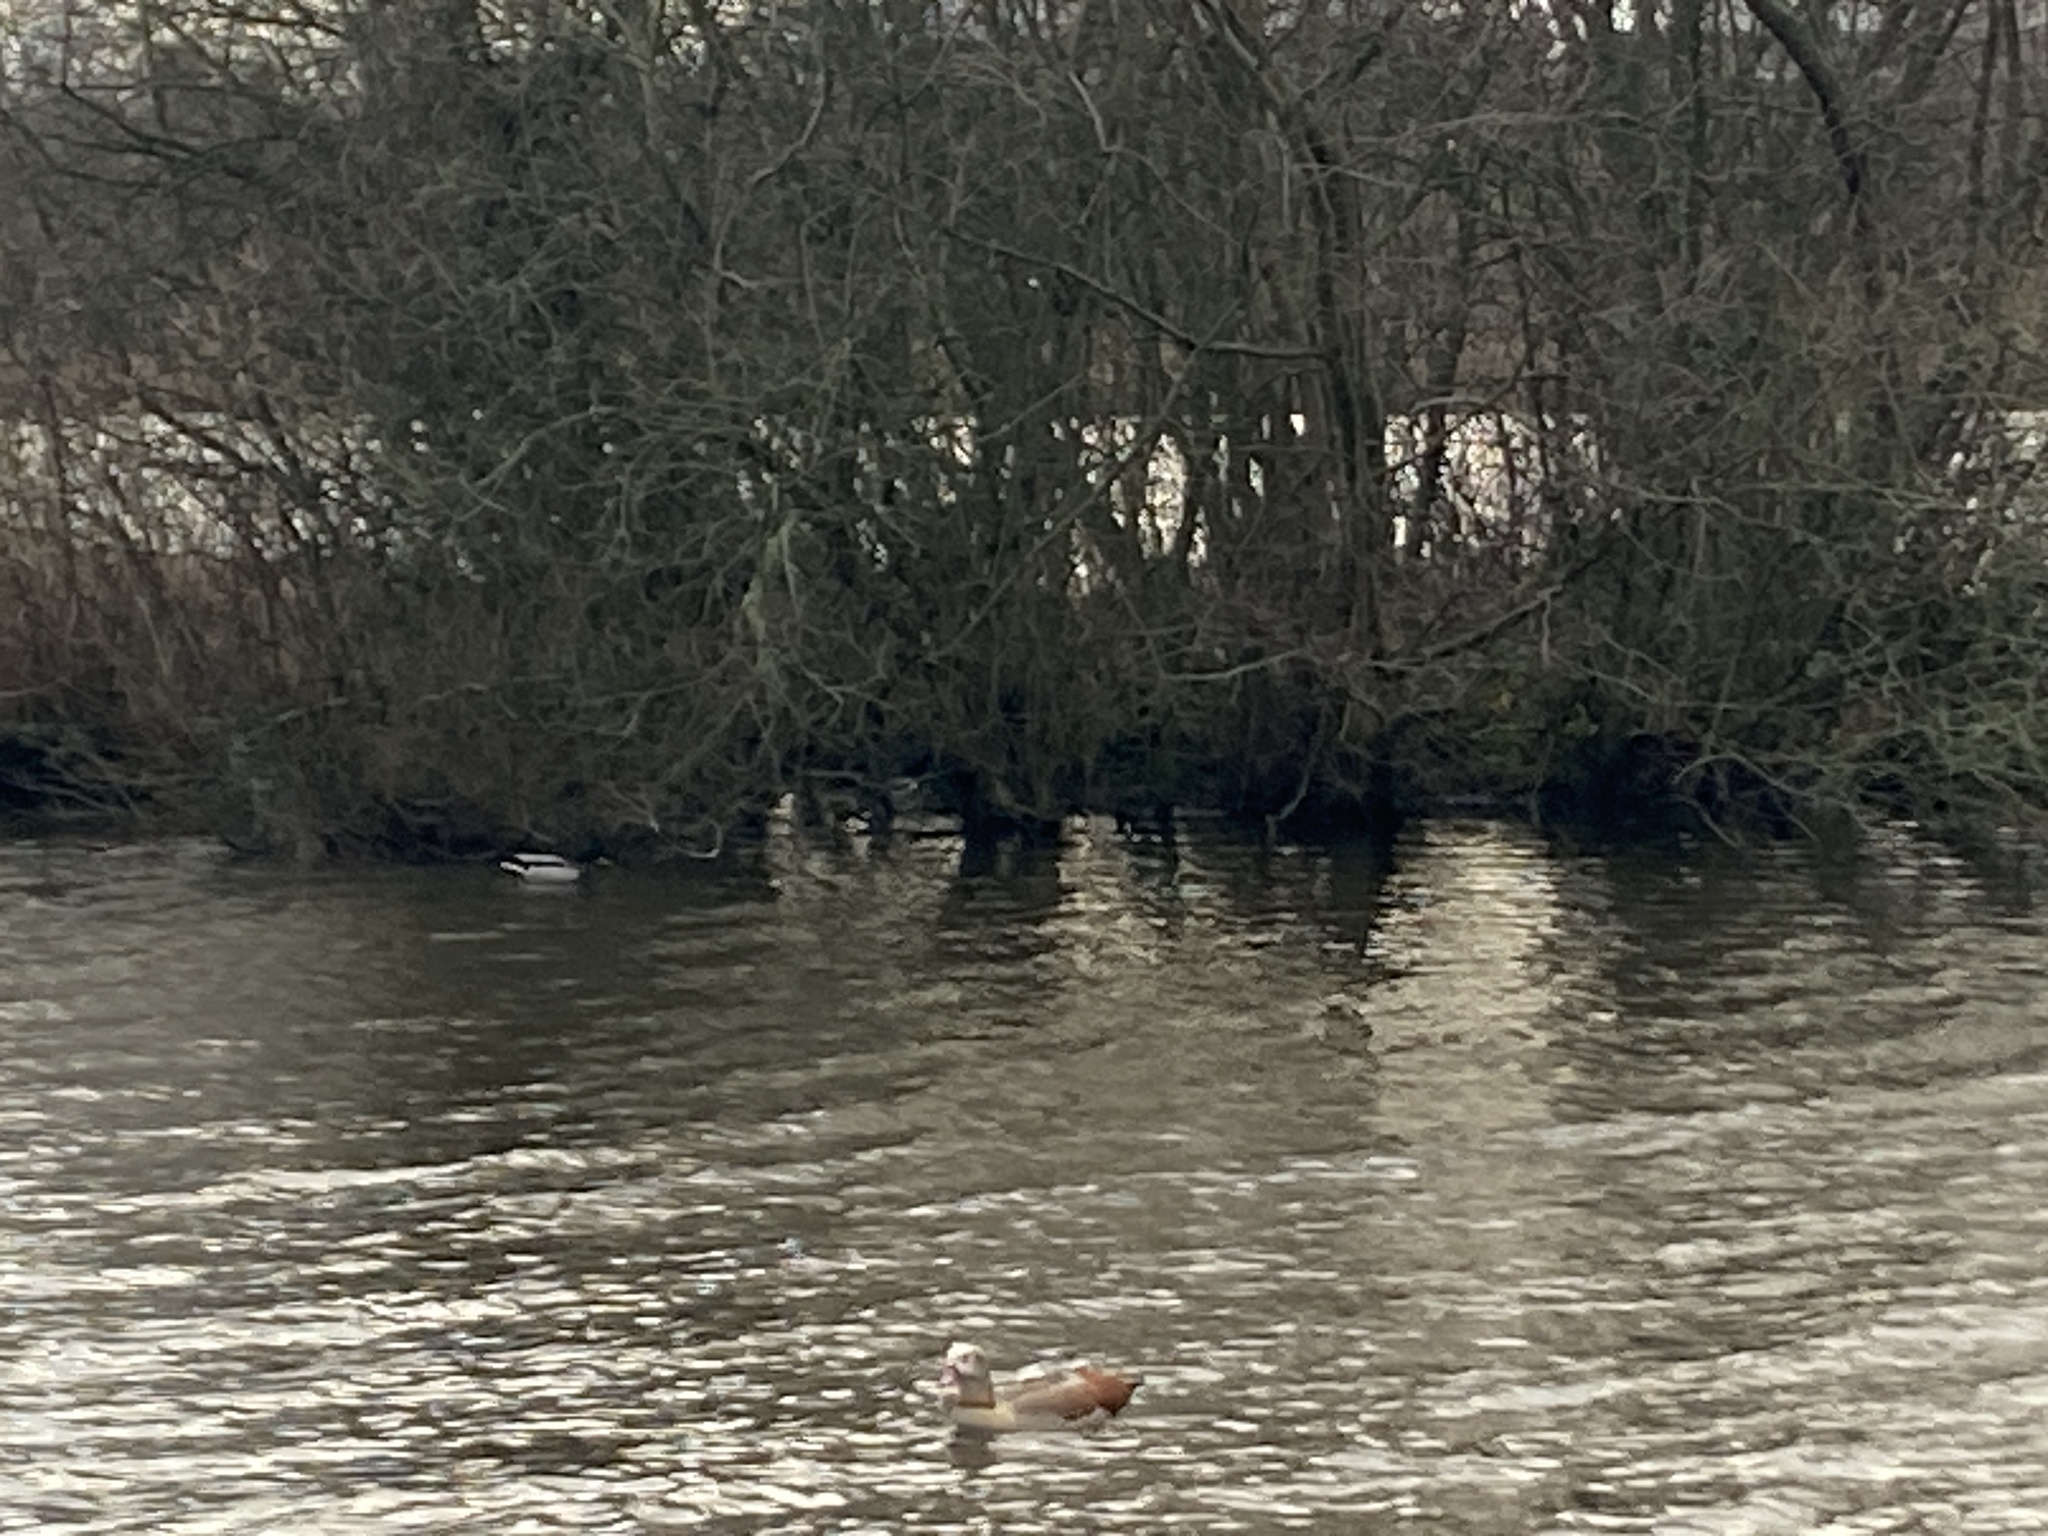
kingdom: Animalia
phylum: Chordata
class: Aves
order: Anseriformes
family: Anatidae
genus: Alopochen
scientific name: Alopochen aegyptiaca
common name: Egyptian goose
